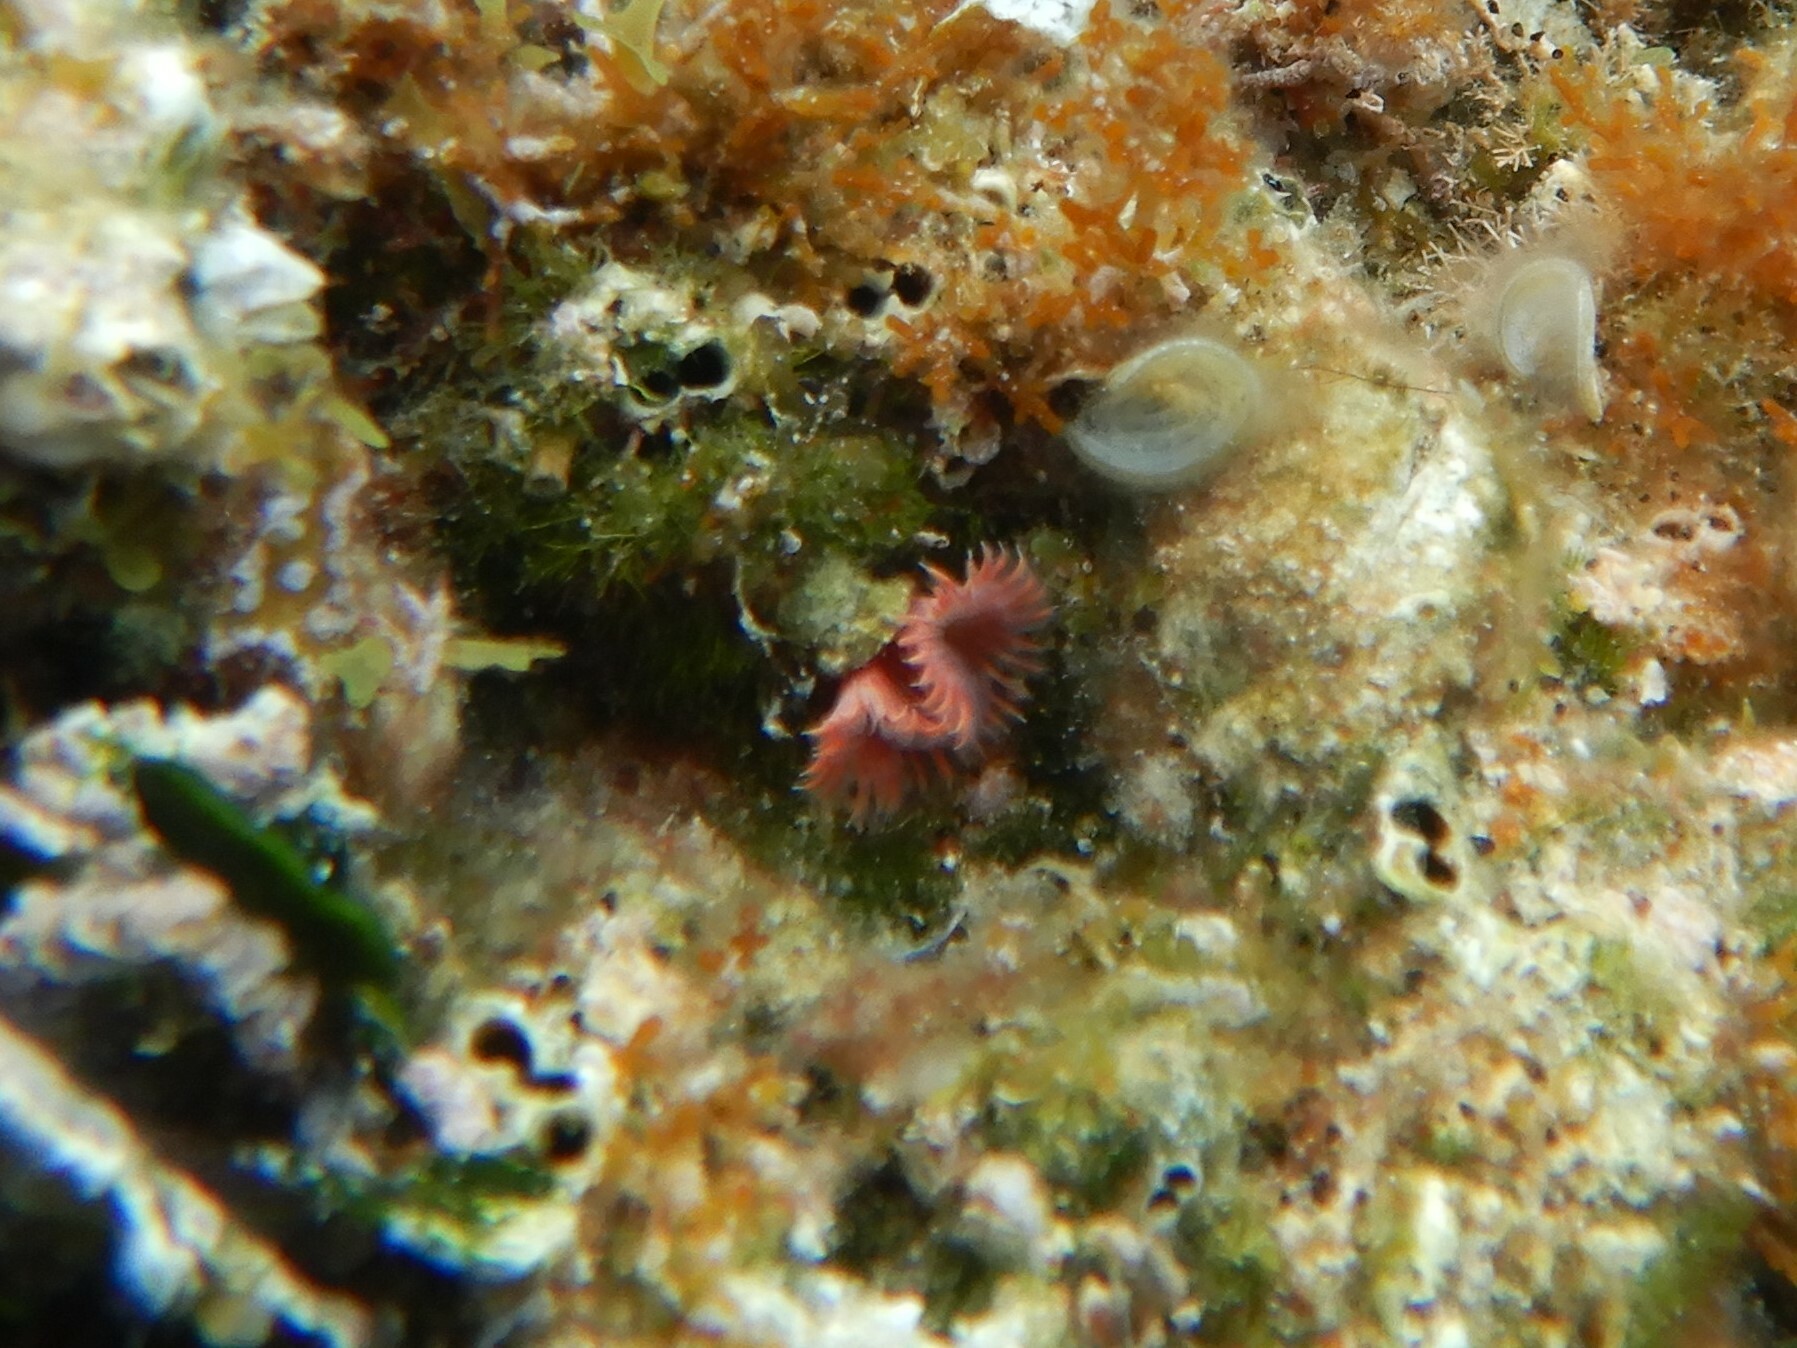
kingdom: Animalia
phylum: Annelida
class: Polychaeta
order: Sabellida
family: Serpulidae
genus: Serpula
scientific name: Serpula vermicularis
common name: Calcareous tubeworm
